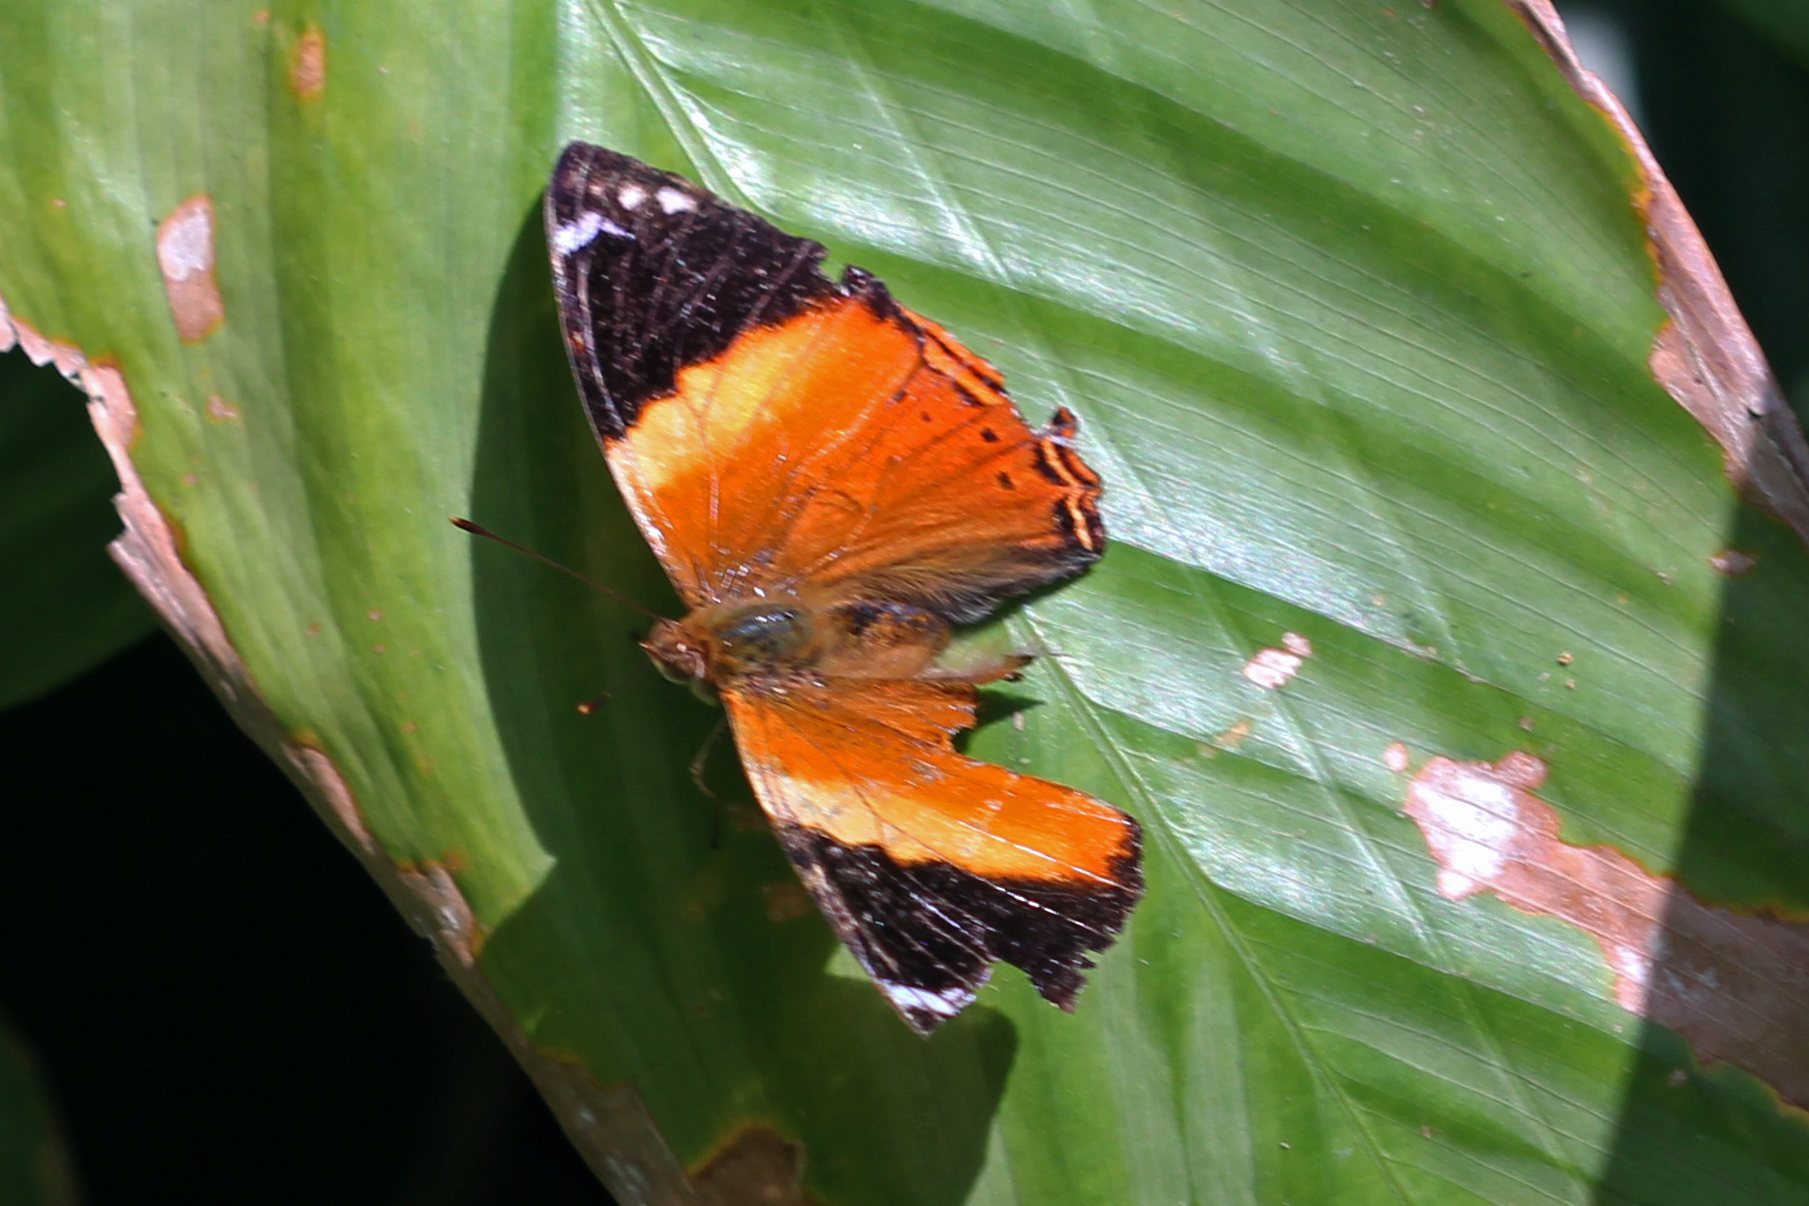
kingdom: Animalia
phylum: Arthropoda
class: Insecta
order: Lepidoptera
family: Nymphalidae
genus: Smyrna
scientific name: Smyrna blomfildia
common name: Blomfild's beauty
